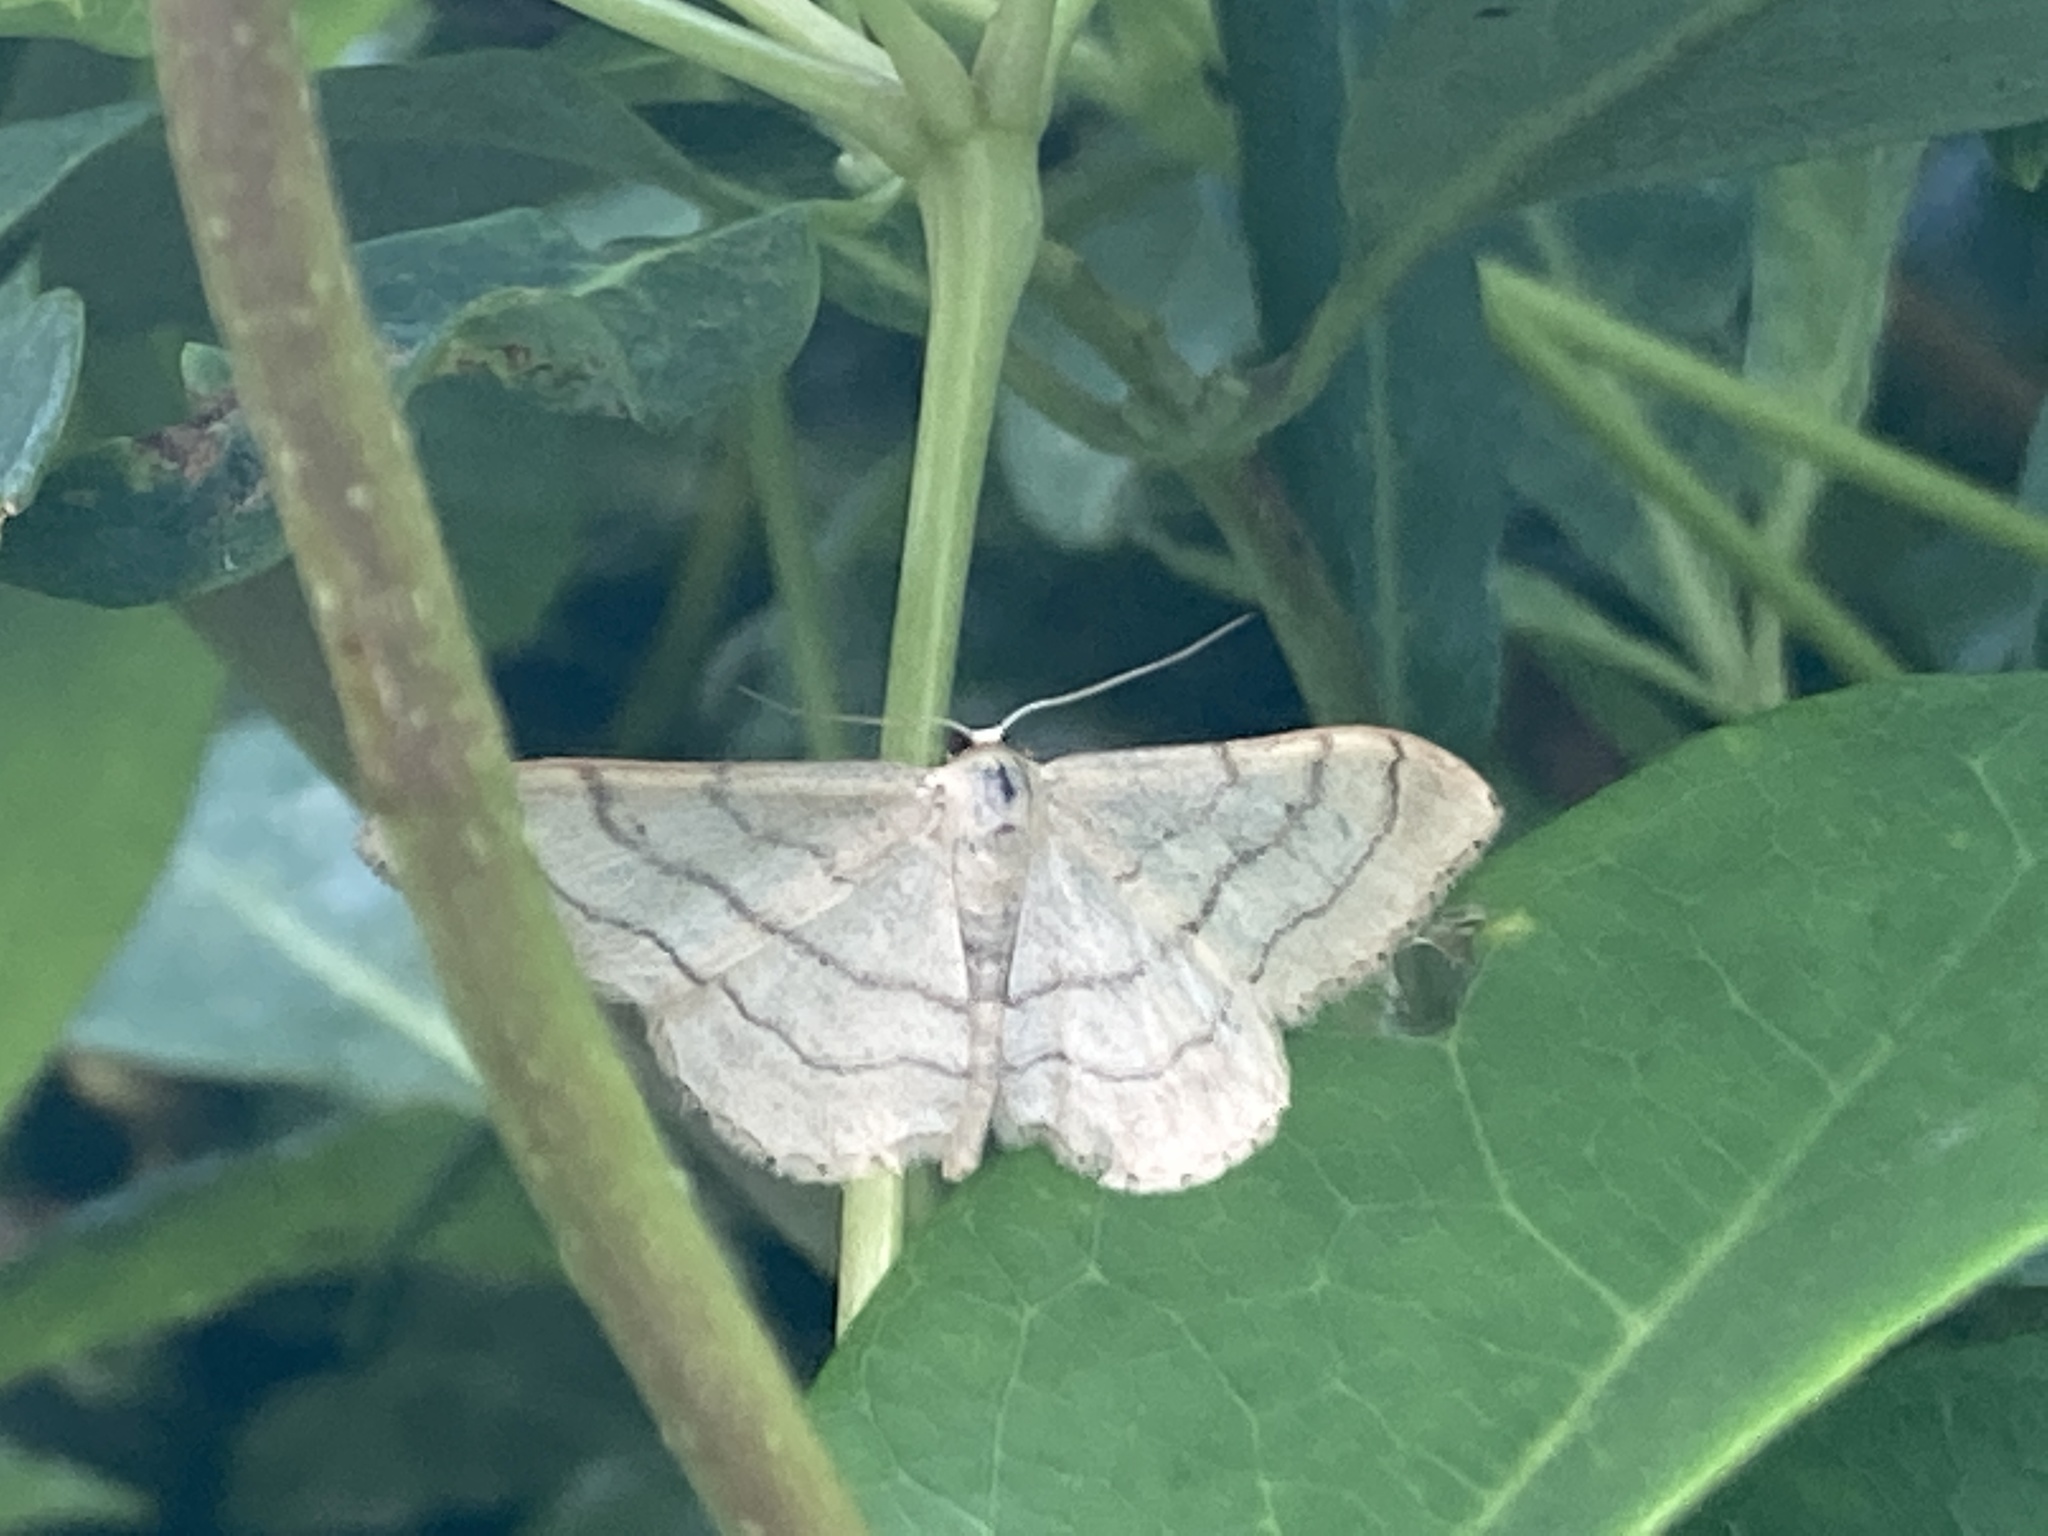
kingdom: Animalia
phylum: Arthropoda
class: Insecta
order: Lepidoptera
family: Geometridae
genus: Idaea
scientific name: Idaea aversata
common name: Riband wave
